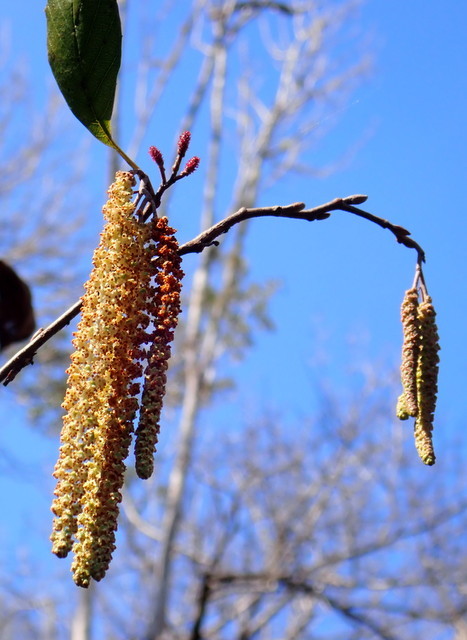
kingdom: Plantae
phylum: Tracheophyta
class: Magnoliopsida
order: Fagales
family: Betulaceae
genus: Alnus
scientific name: Alnus serrulata
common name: Hazel alder
